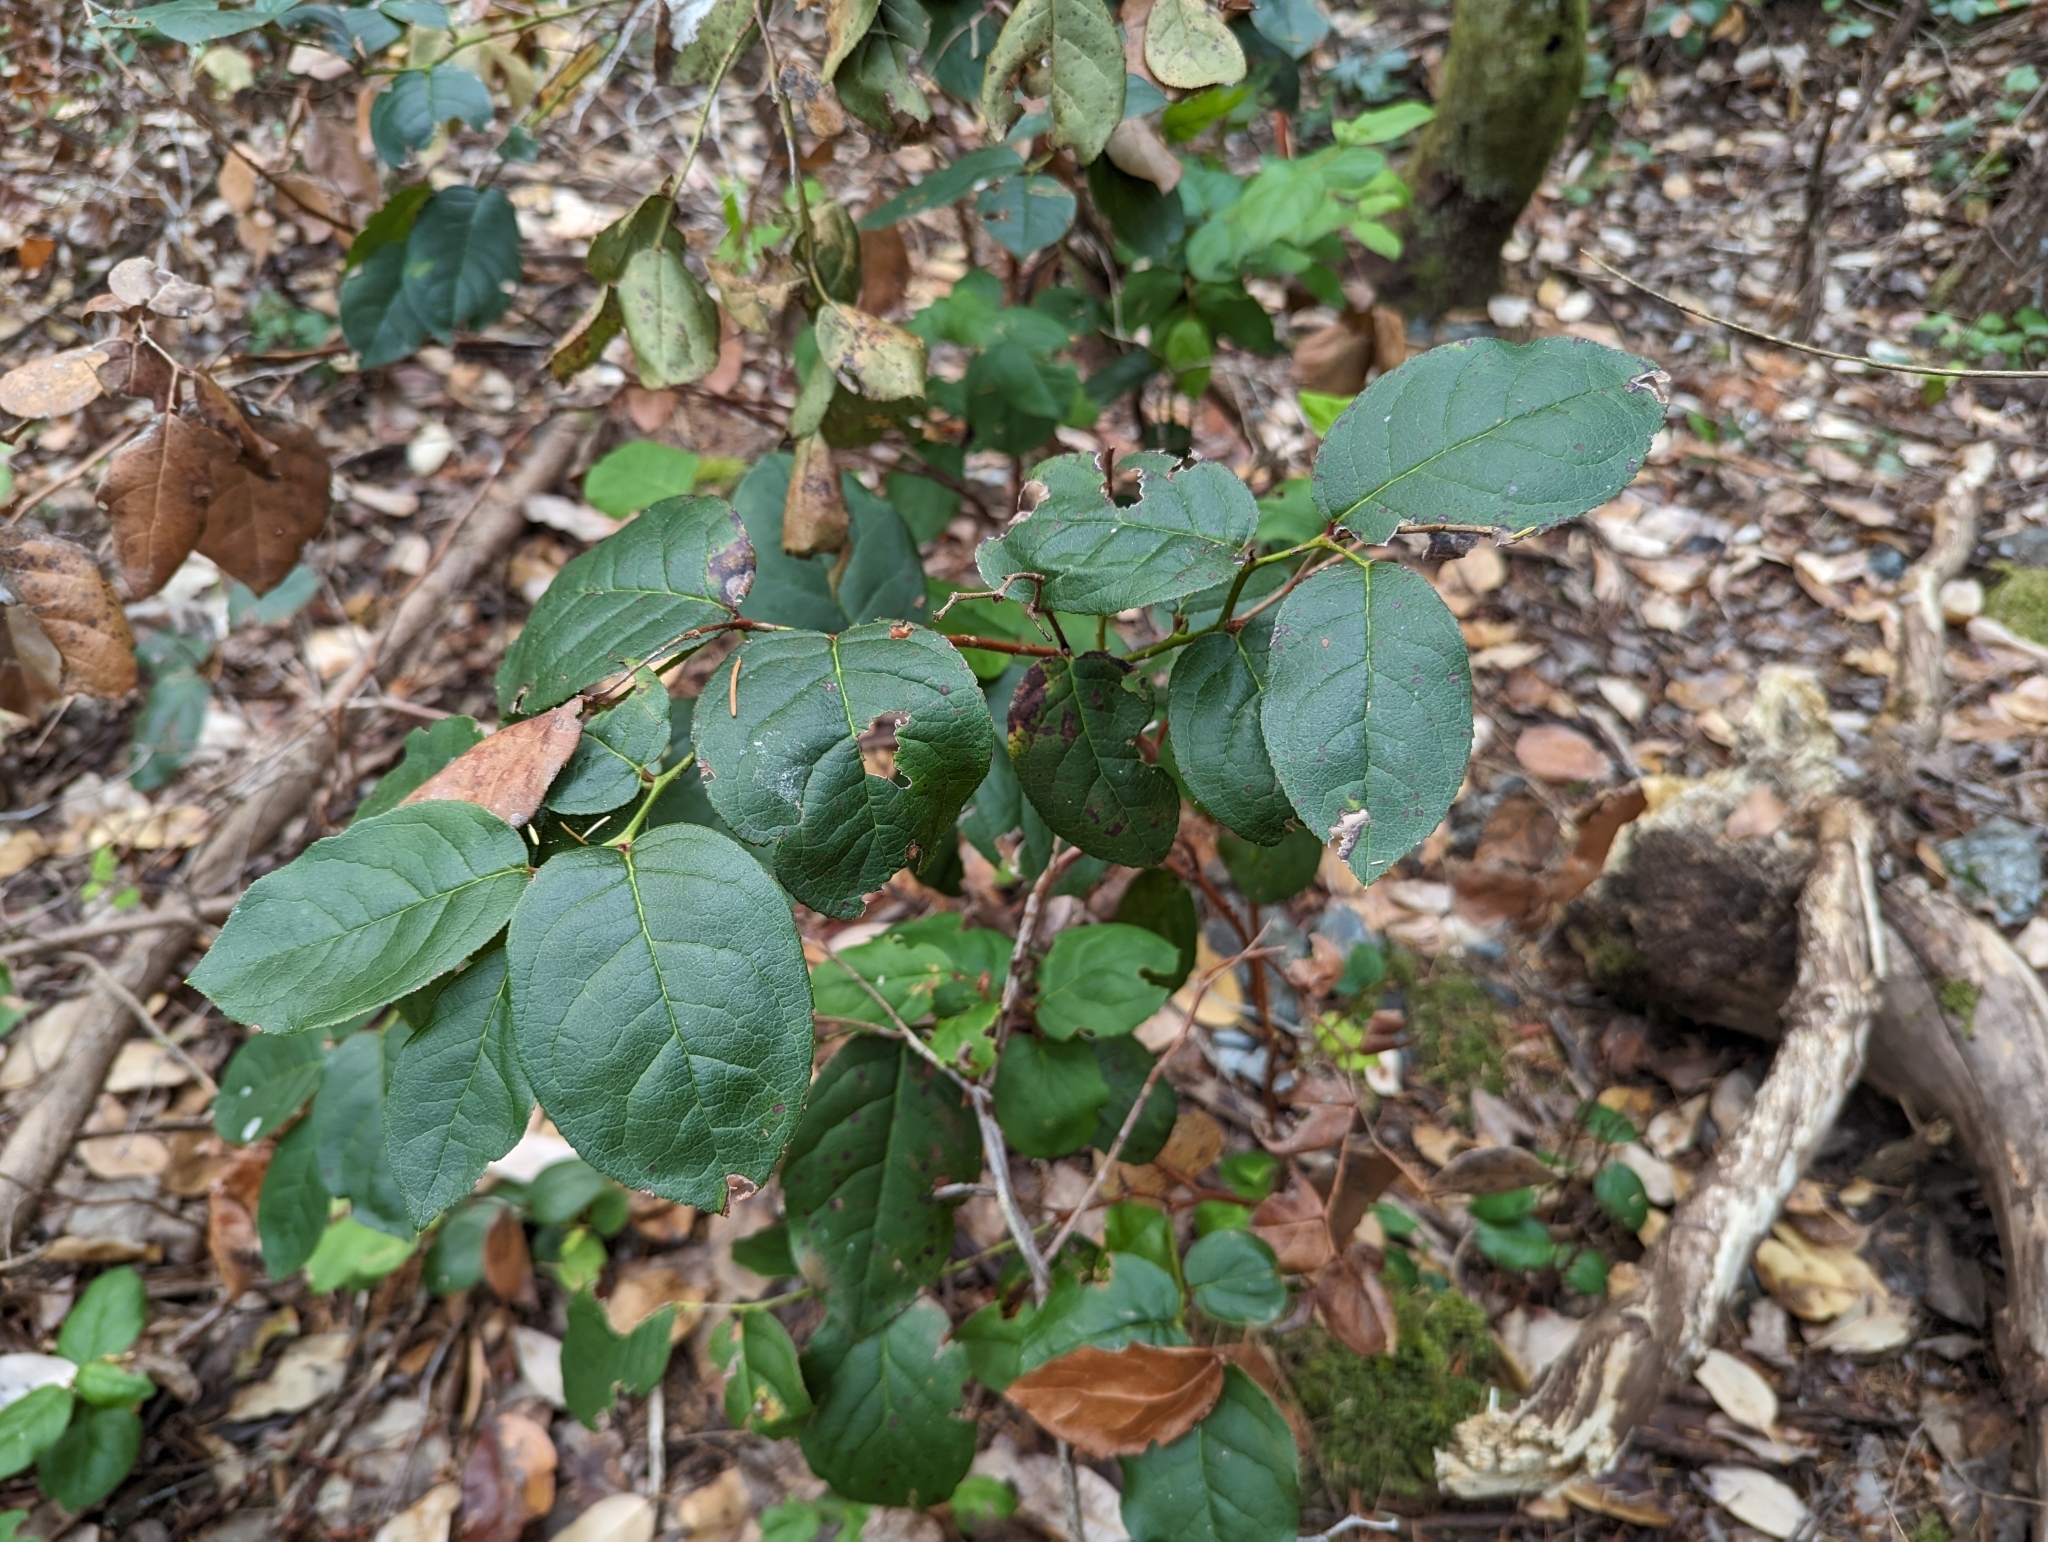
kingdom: Plantae
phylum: Tracheophyta
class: Magnoliopsida
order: Ericales
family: Ericaceae
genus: Gaultheria
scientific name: Gaultheria shallon
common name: Shallon
